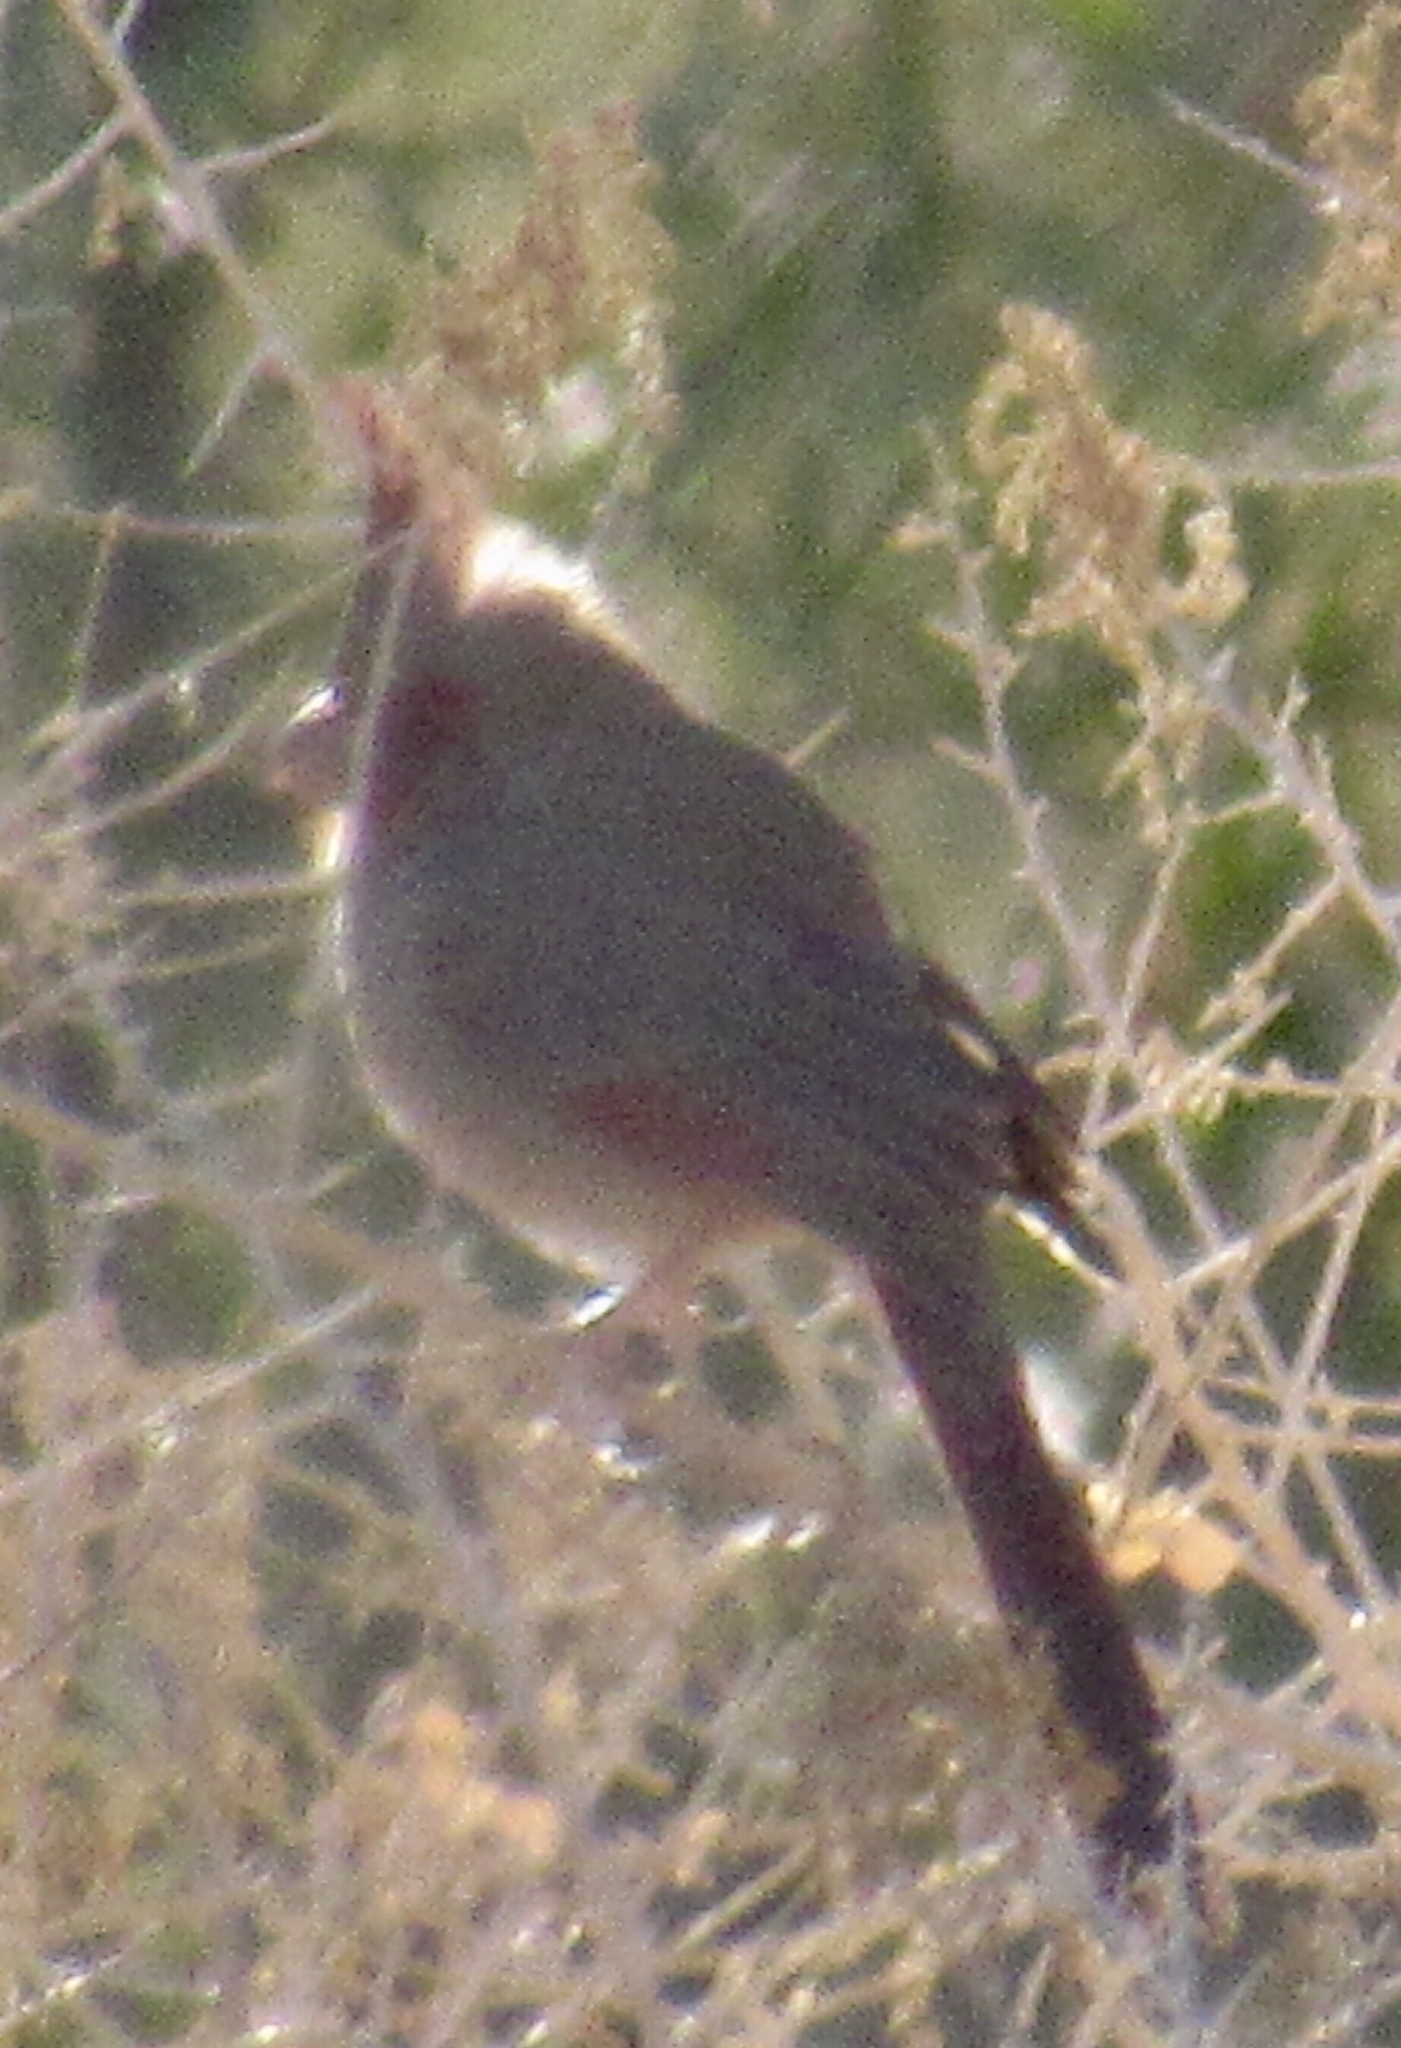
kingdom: Animalia
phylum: Chordata
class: Aves
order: Passeriformes
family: Cardinalidae
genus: Cardinalis
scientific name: Cardinalis sinuatus
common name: Pyrrhuloxia
